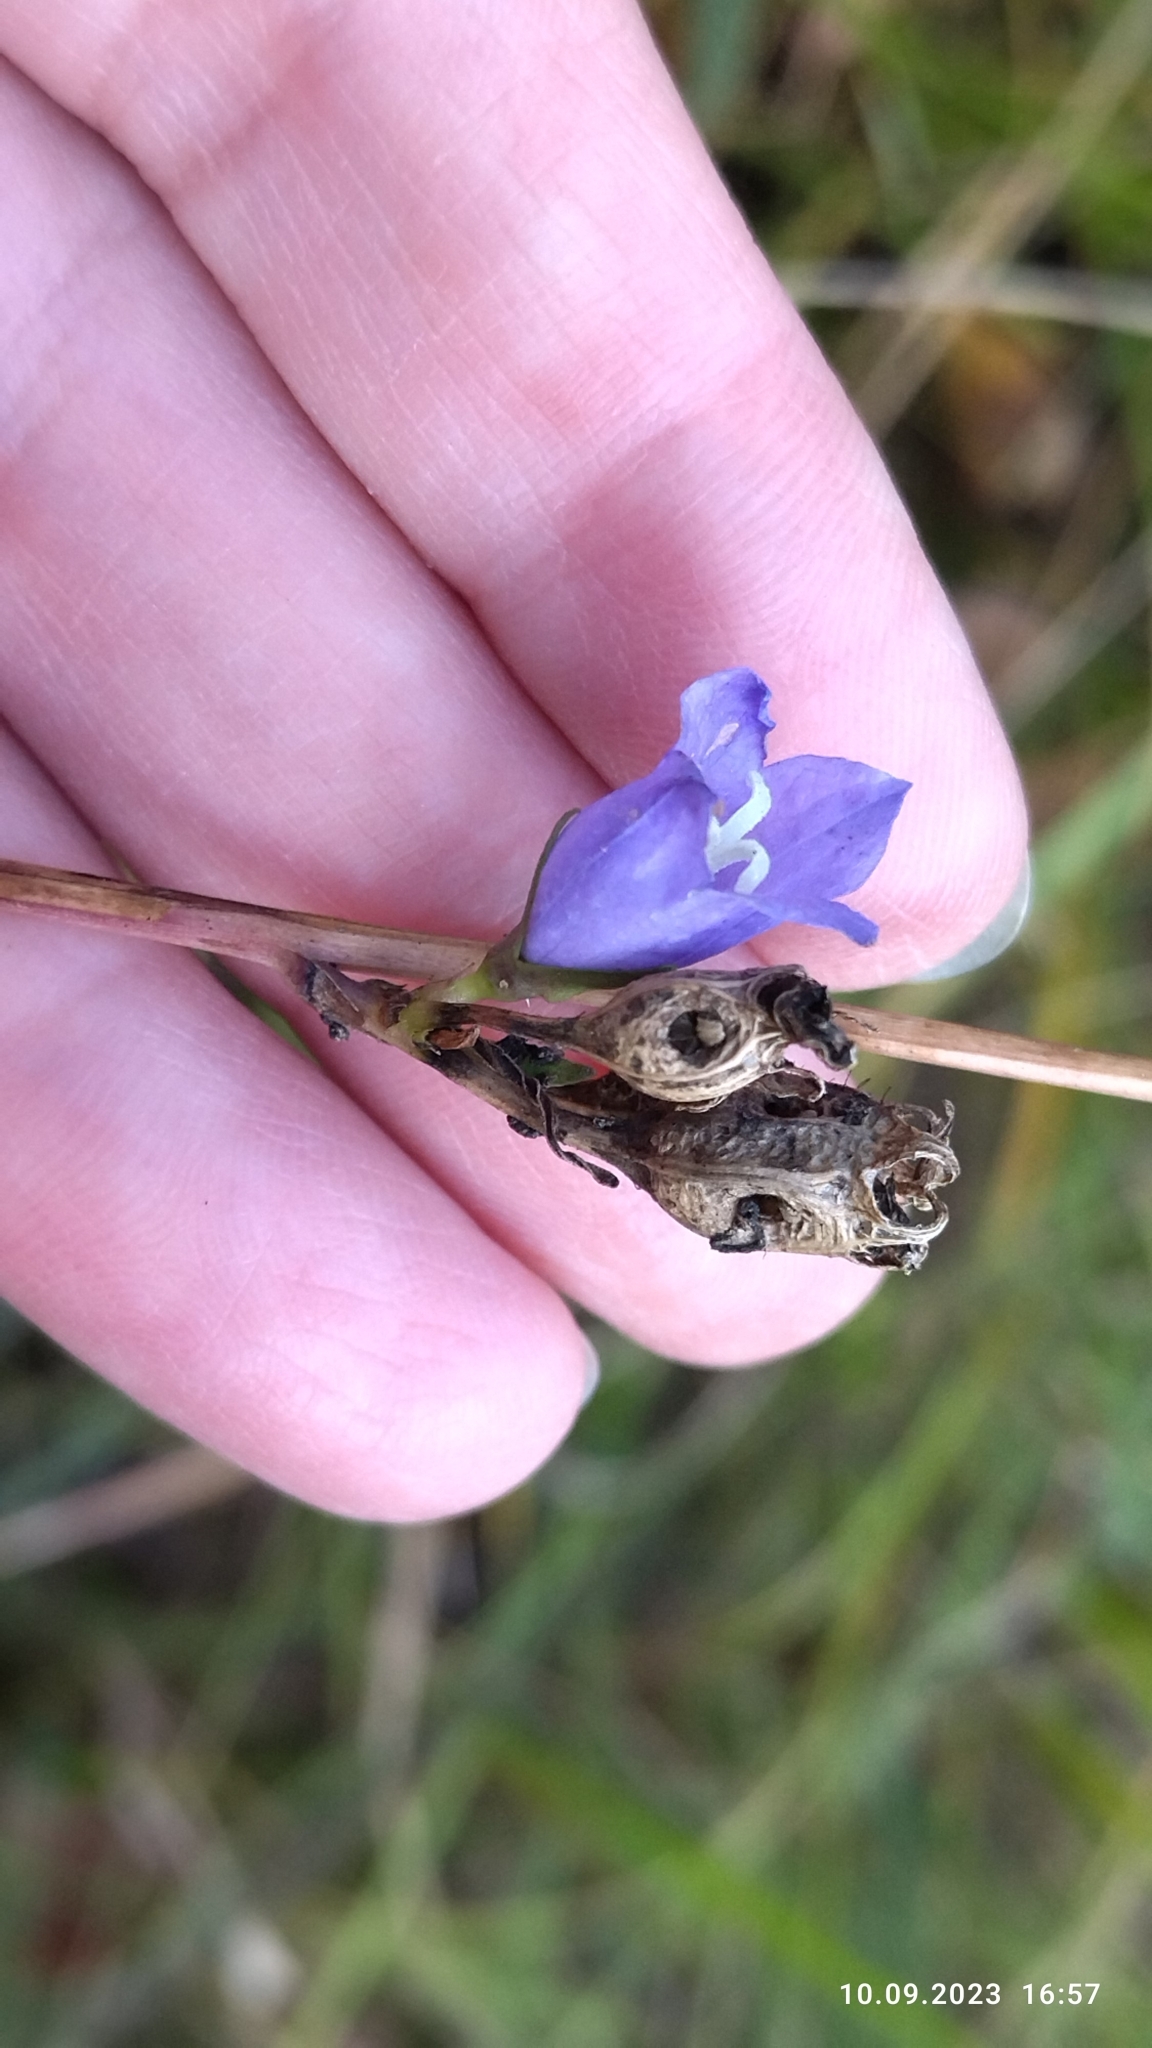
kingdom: Plantae
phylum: Tracheophyta
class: Magnoliopsida
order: Asterales
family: Campanulaceae
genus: Campanula
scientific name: Campanula persicifolia
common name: Peach-leaved bellflower
